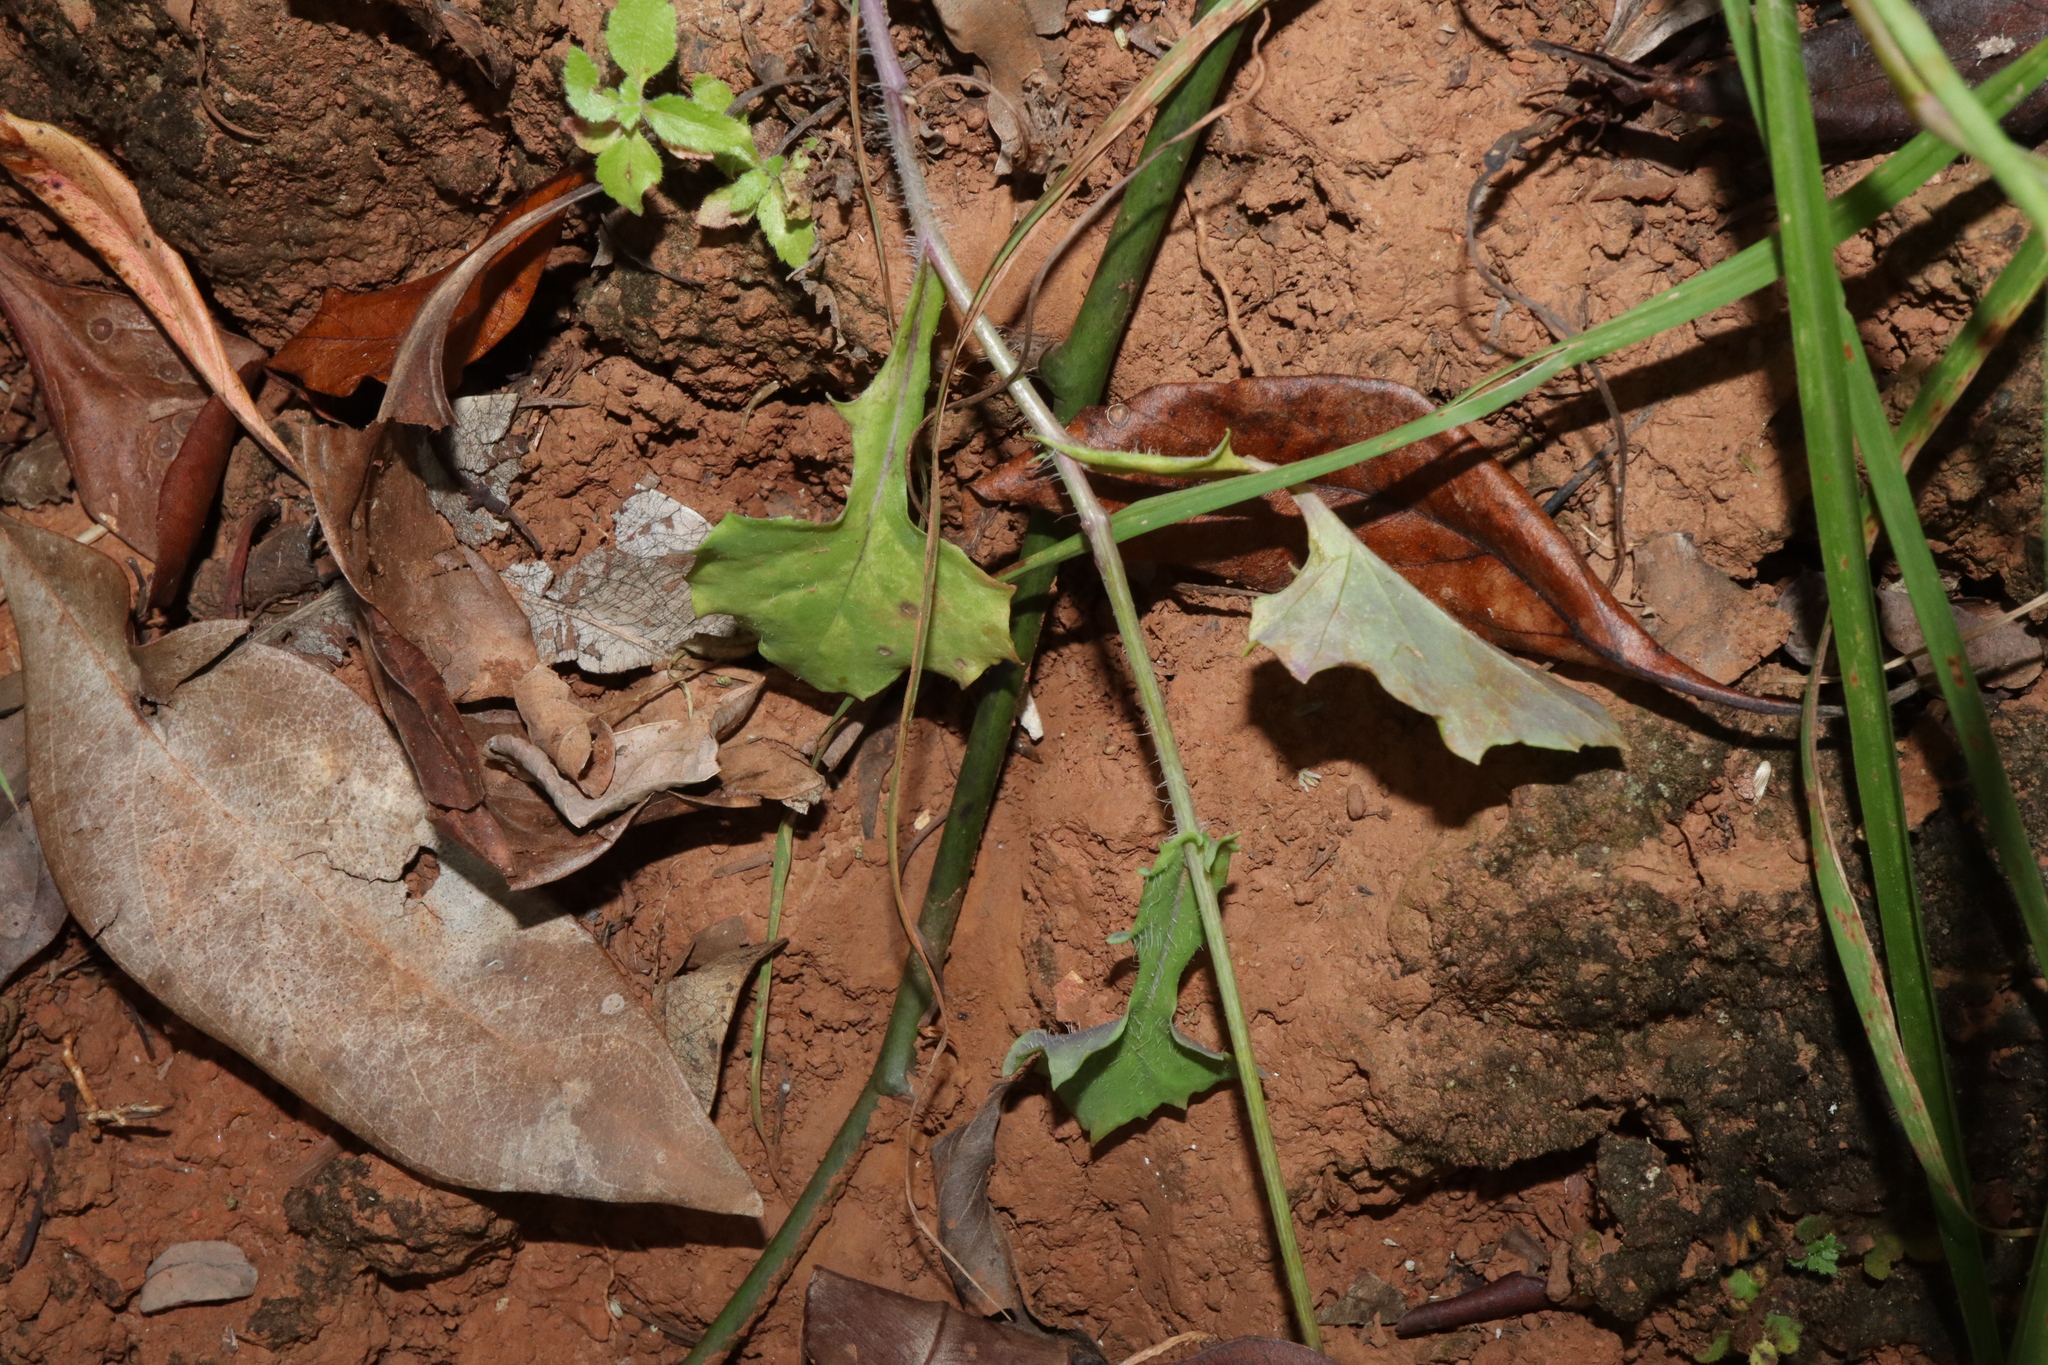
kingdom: Plantae
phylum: Tracheophyta
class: Magnoliopsida
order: Asterales
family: Asteraceae
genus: Emilia
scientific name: Emilia javanica
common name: Tassel-flower
